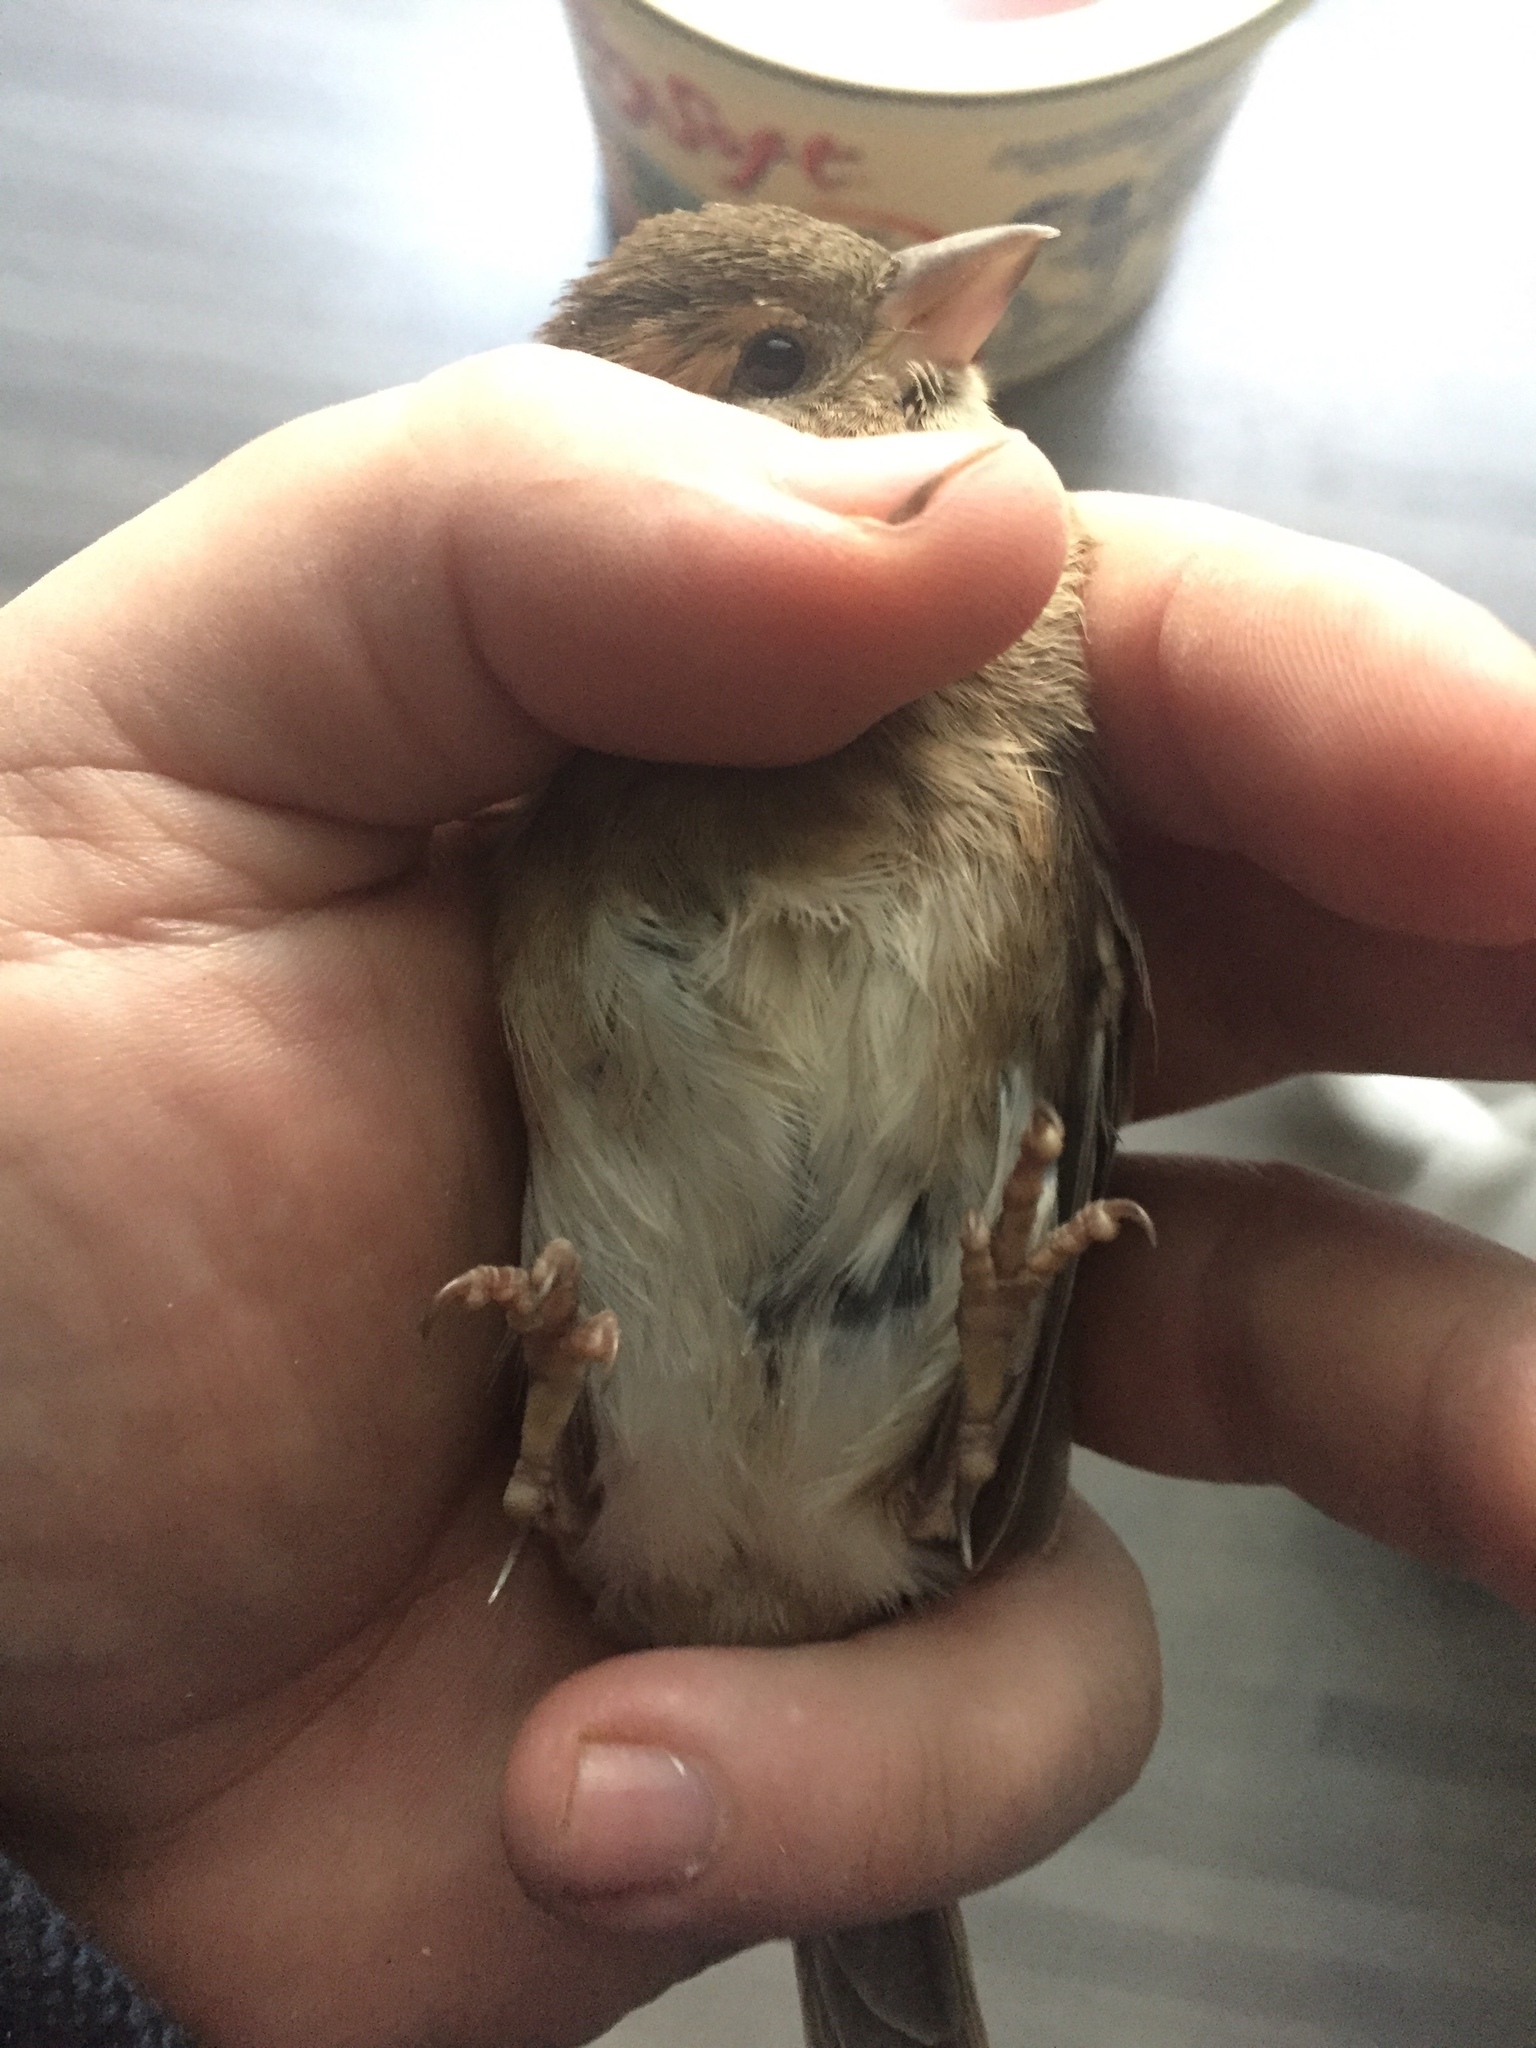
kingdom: Animalia
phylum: Chordata
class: Aves
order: Passeriformes
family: Passeridae
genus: Passer
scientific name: Passer domesticus
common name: House sparrow
